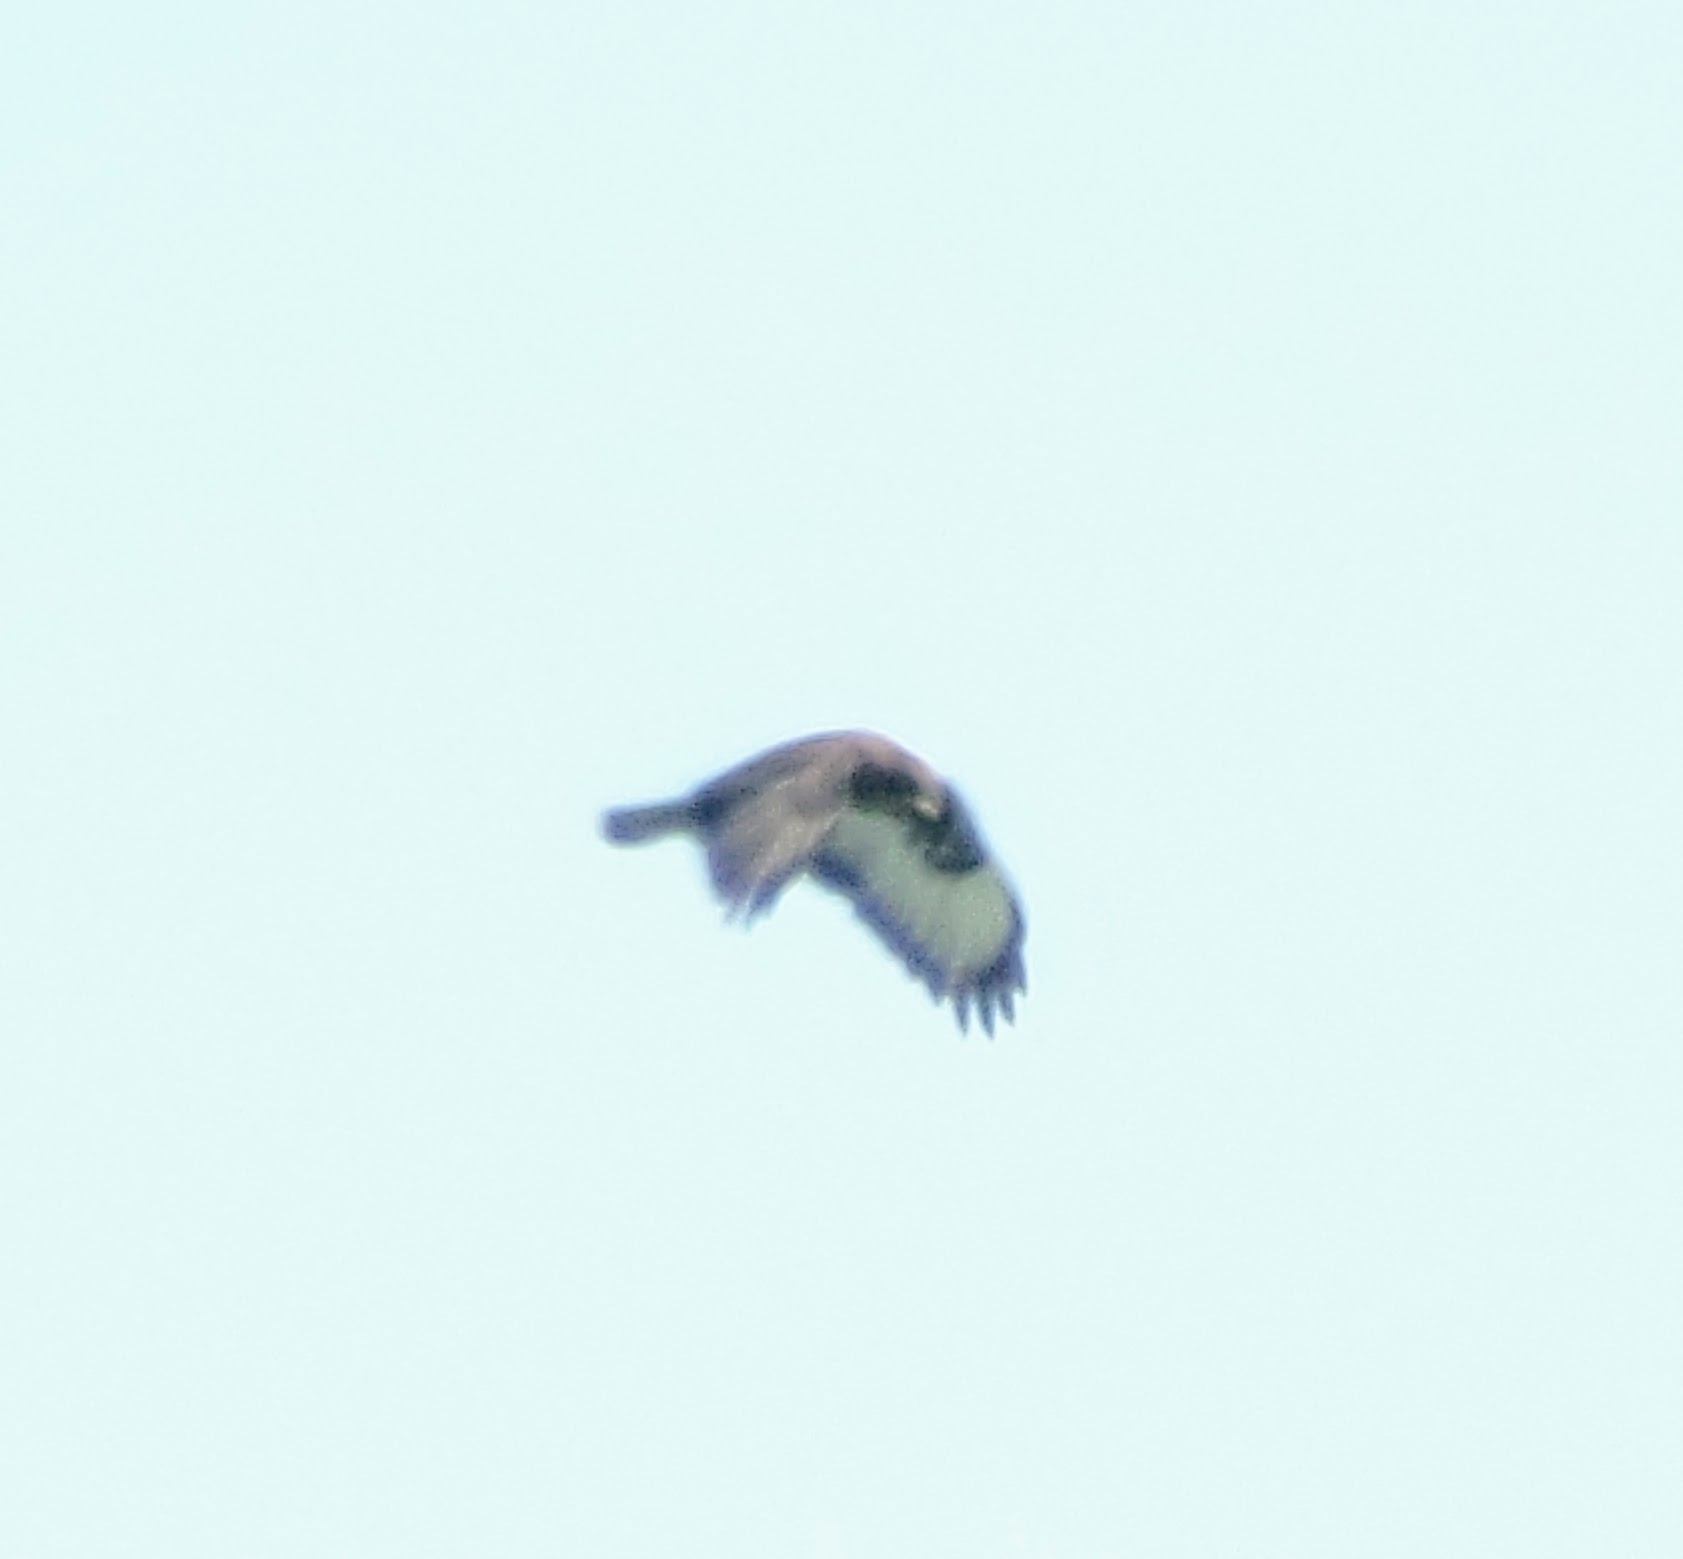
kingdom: Animalia
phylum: Chordata
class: Aves
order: Accipitriformes
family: Accipitridae
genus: Buteo
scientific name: Buteo buteo
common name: Common buzzard
